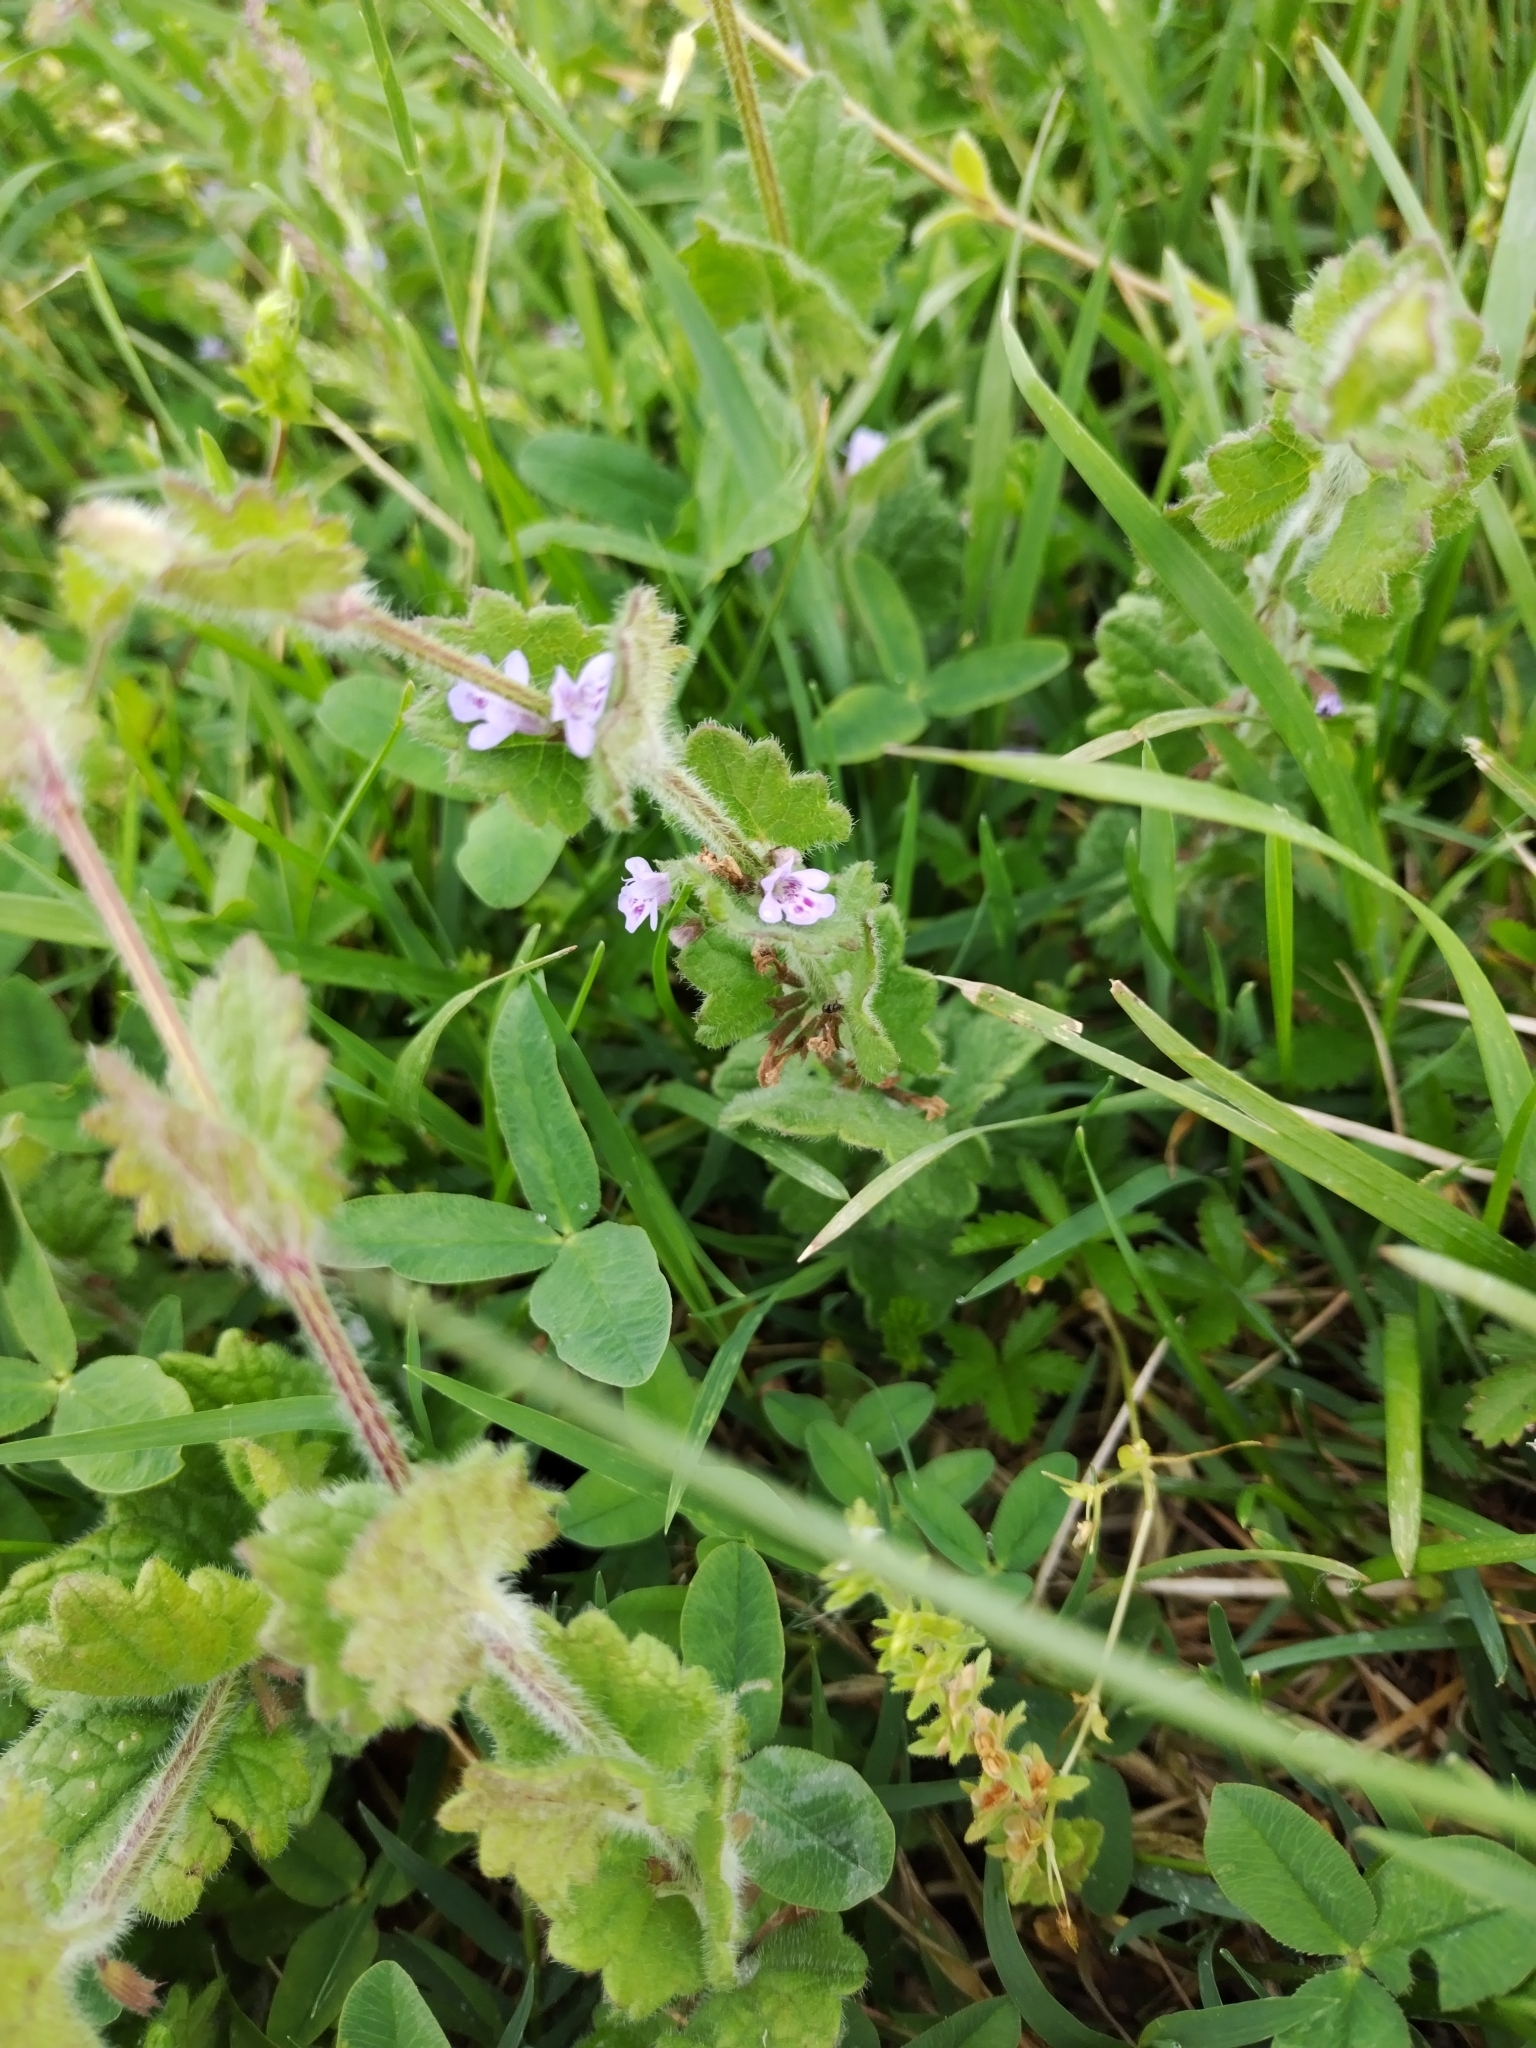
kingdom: Plantae
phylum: Tracheophyta
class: Magnoliopsida
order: Lamiales
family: Lamiaceae
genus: Glechoma
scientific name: Glechoma hederacea
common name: Ground ivy
